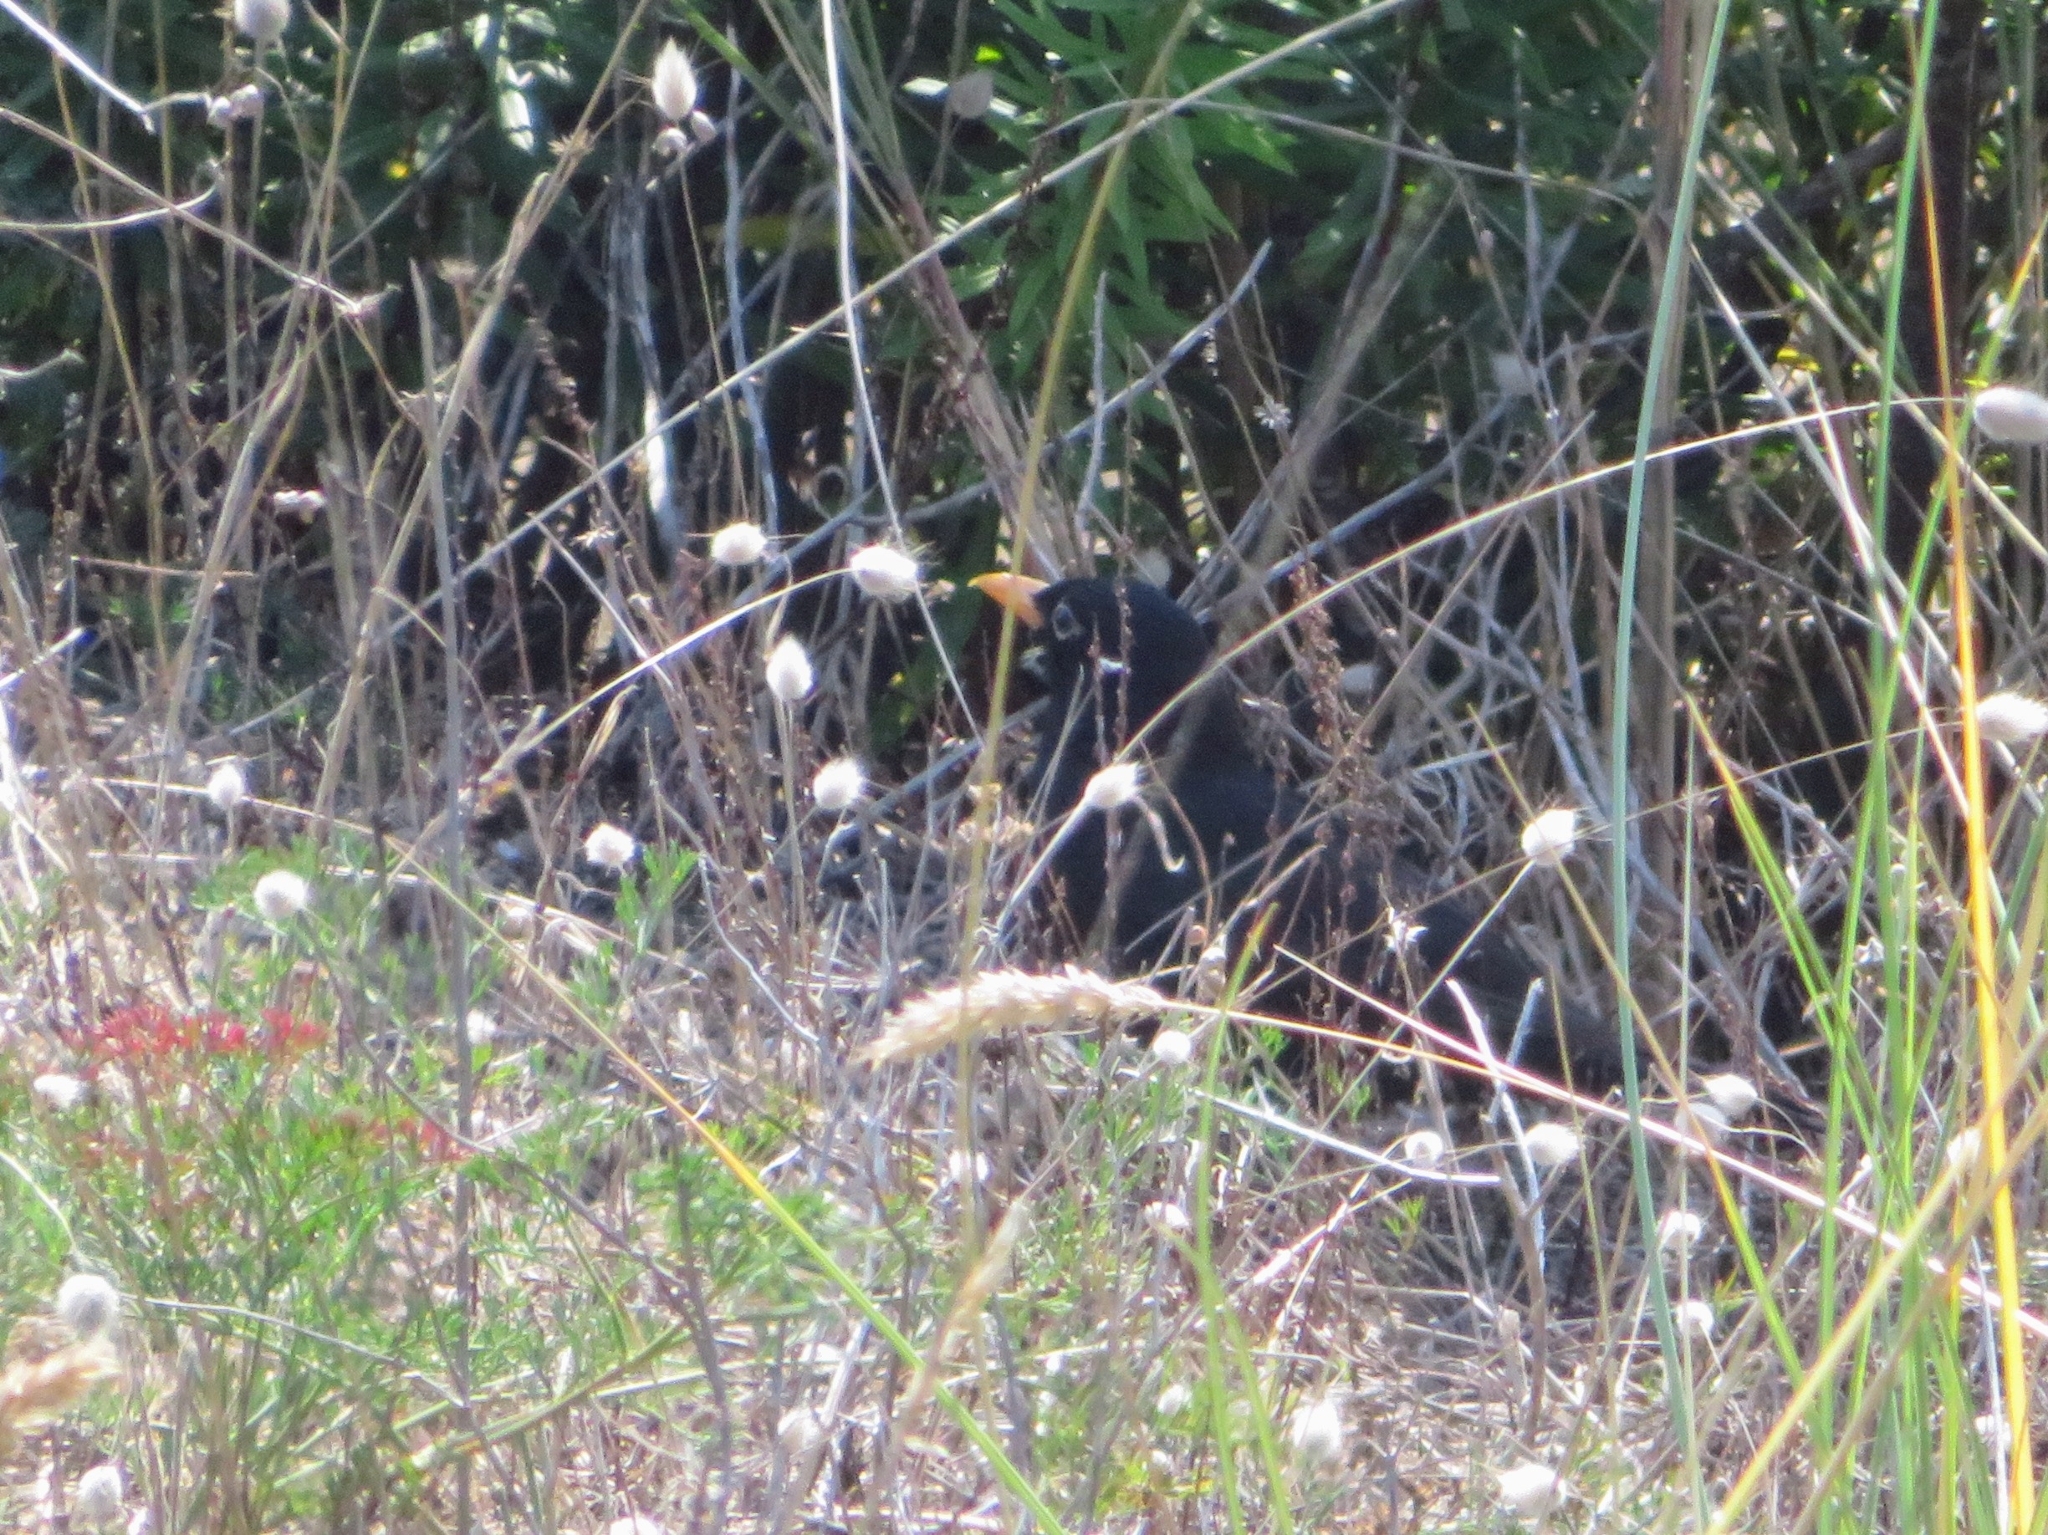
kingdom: Animalia
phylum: Chordata
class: Aves
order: Passeriformes
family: Turdidae
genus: Turdus
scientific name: Turdus merula
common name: Common blackbird
